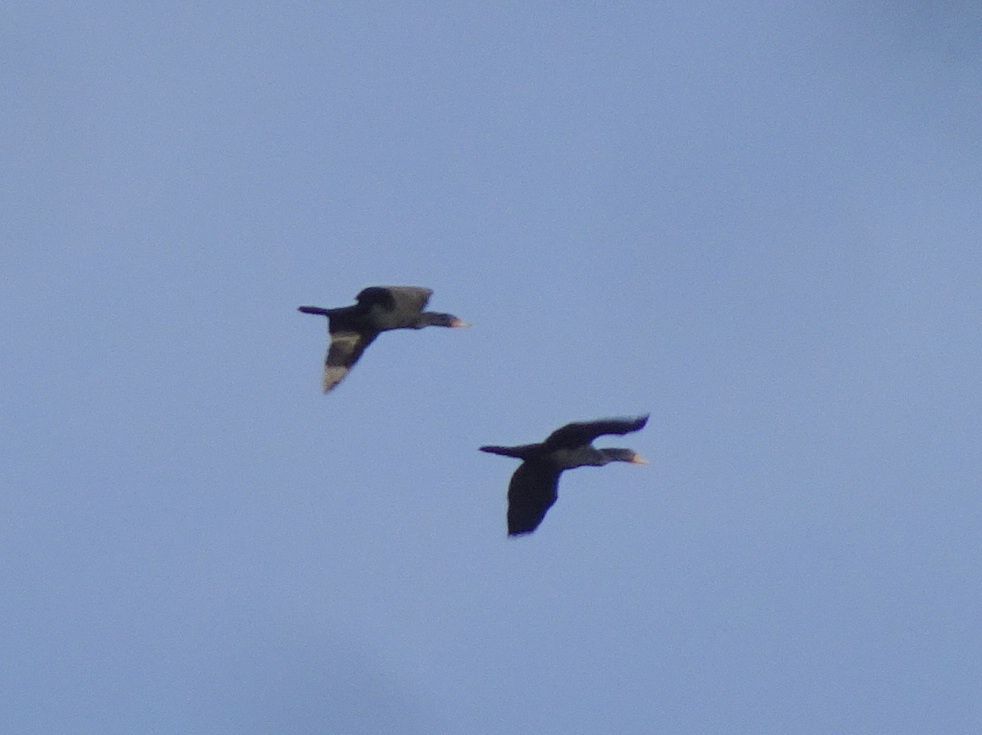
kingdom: Animalia
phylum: Chordata
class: Aves
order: Suliformes
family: Phalacrocoracidae
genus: Phalacrocorax
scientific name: Phalacrocorax auritus
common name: Double-crested cormorant
